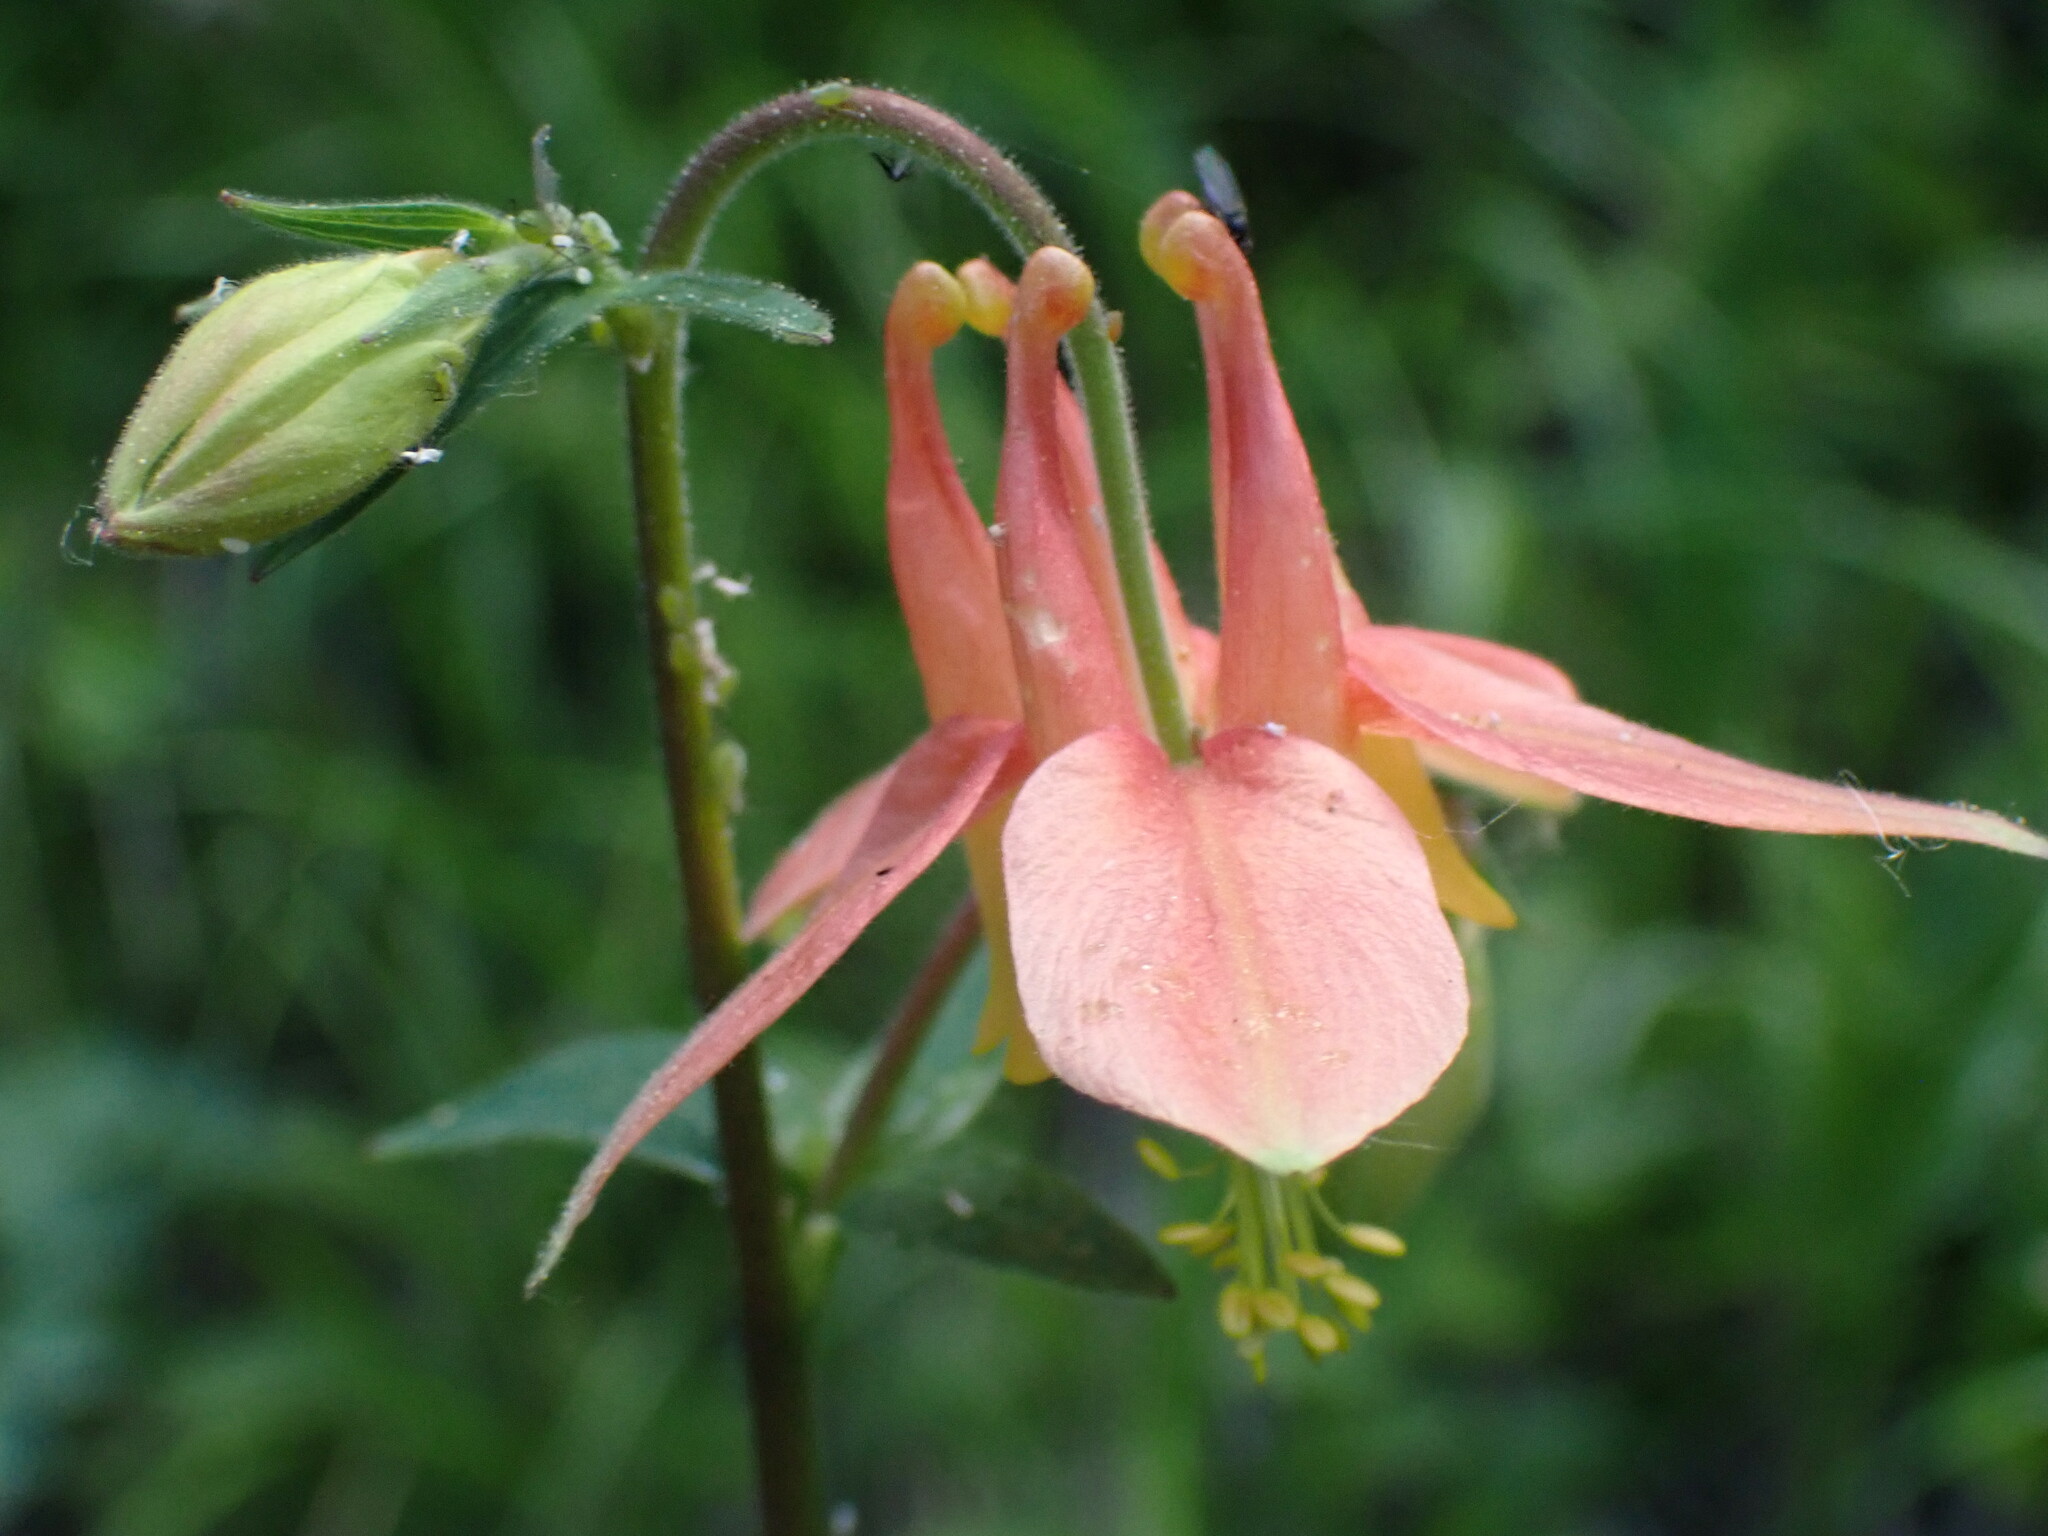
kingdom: Plantae
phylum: Tracheophyta
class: Magnoliopsida
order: Ranunculales
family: Ranunculaceae
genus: Aquilegia
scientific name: Aquilegia formosa
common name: Sitka columbine
